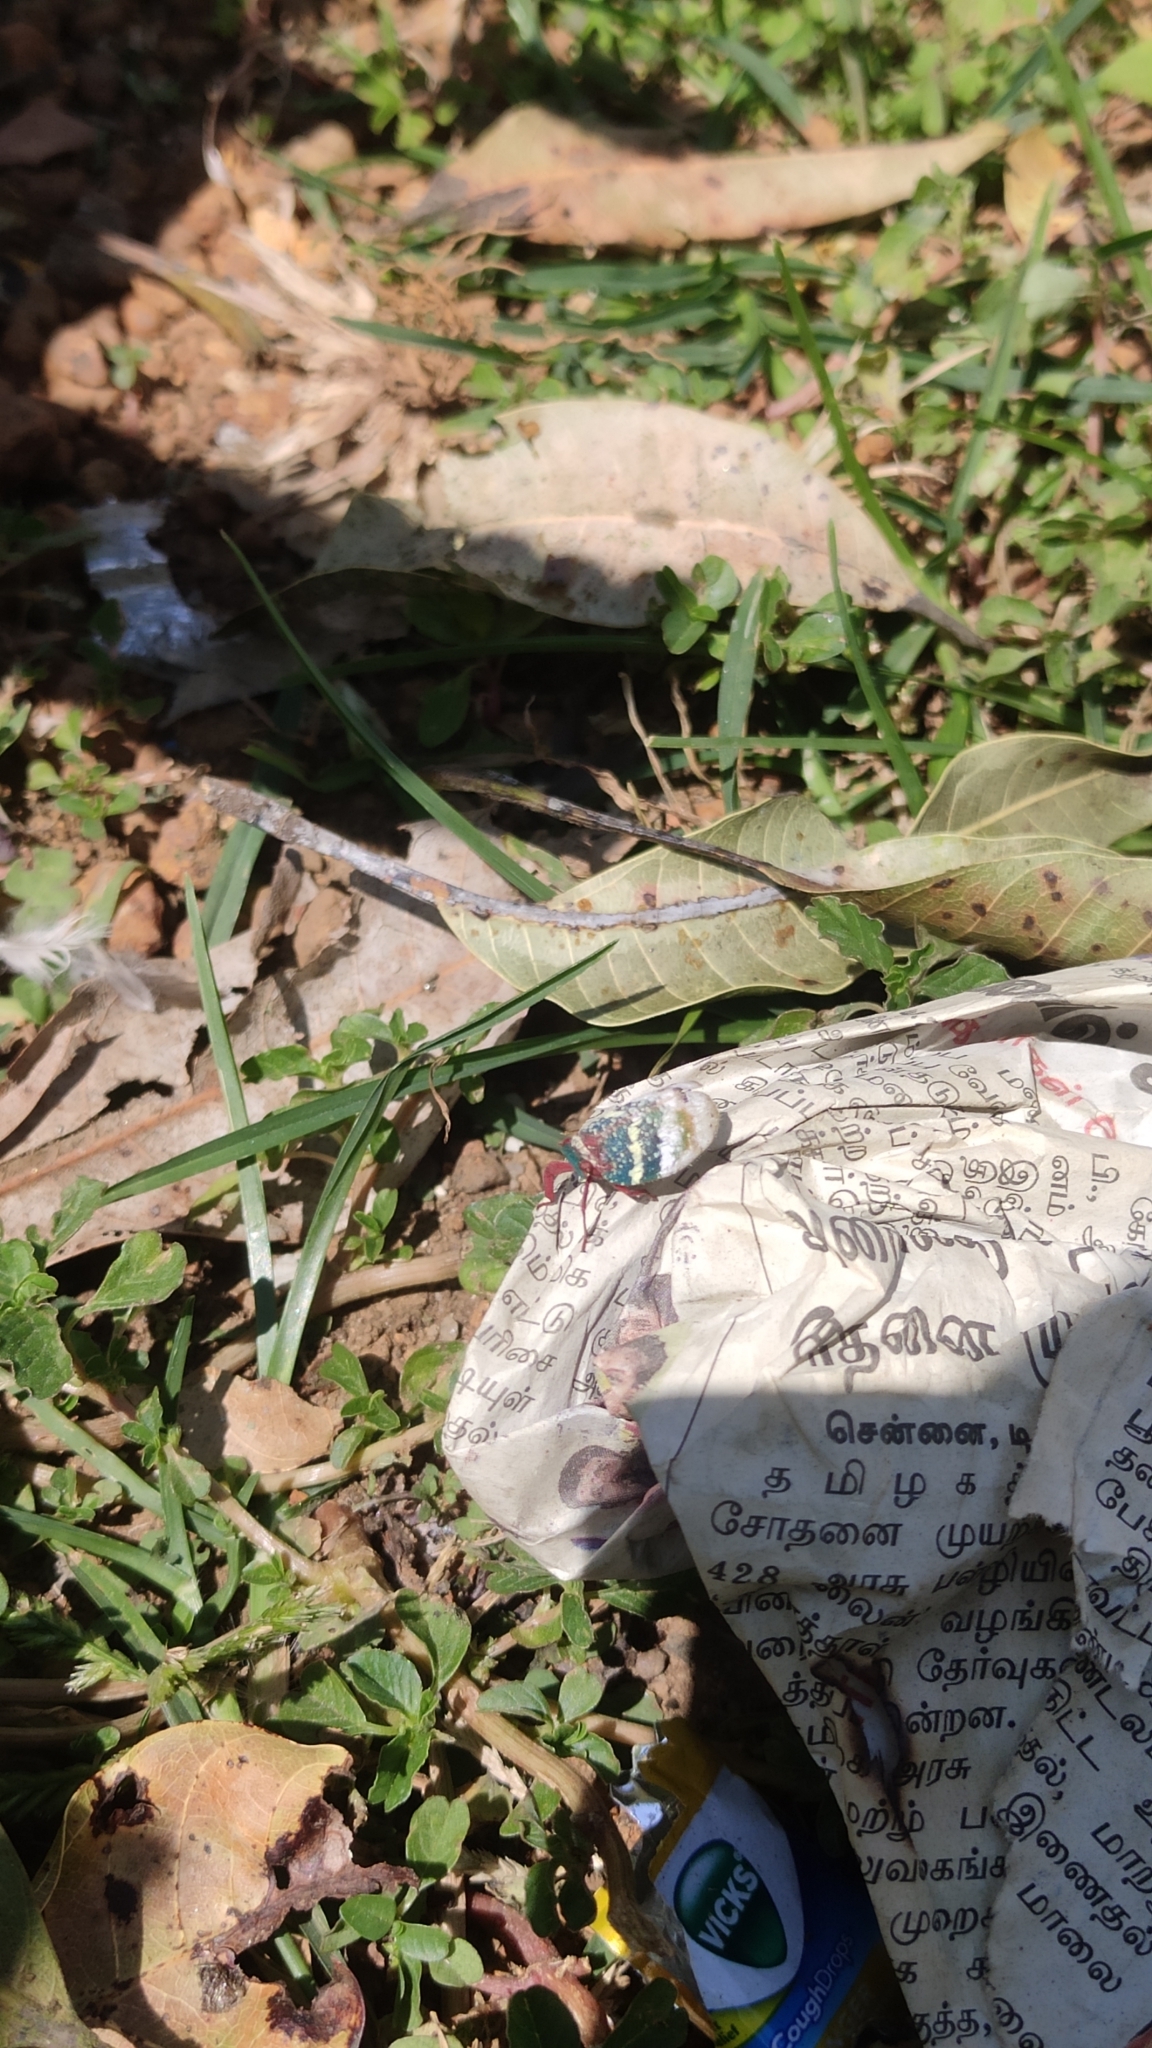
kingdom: Animalia
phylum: Arthropoda
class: Insecta
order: Hemiptera
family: Eurybrachidae
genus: Eurybrachys
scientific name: Eurybrachys tomentosa
